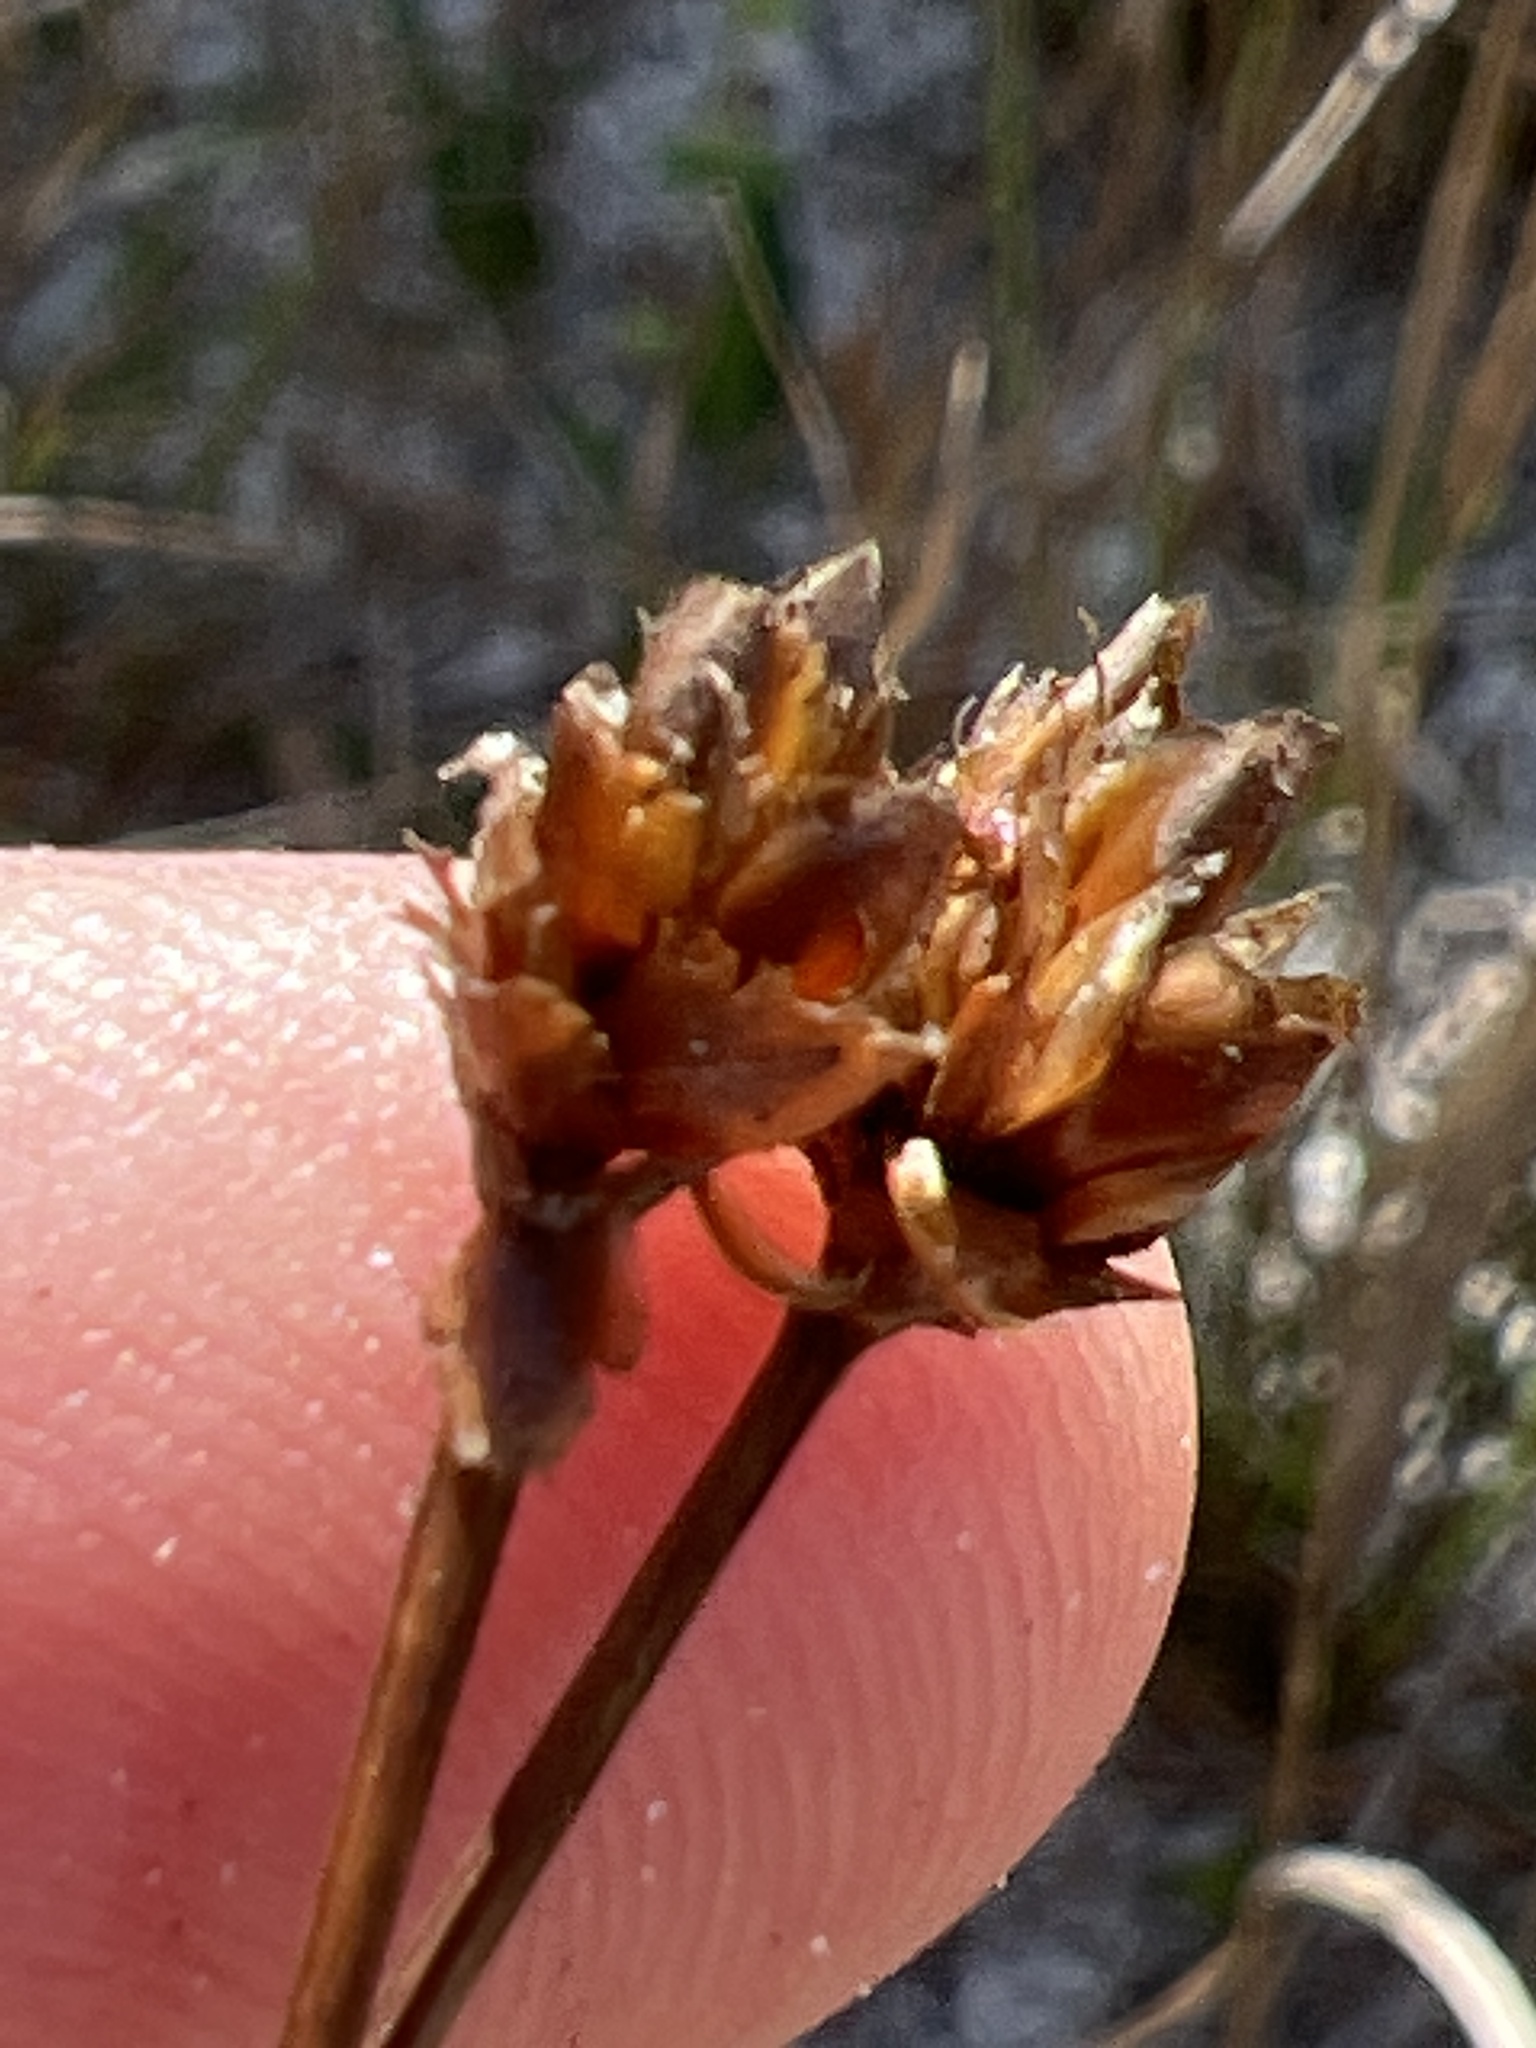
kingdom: Plantae
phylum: Tracheophyta
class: Liliopsida
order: Poales
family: Xyridaceae
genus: Xyris
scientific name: Xyris elliottii
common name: Elliot's yelloweyed grass
